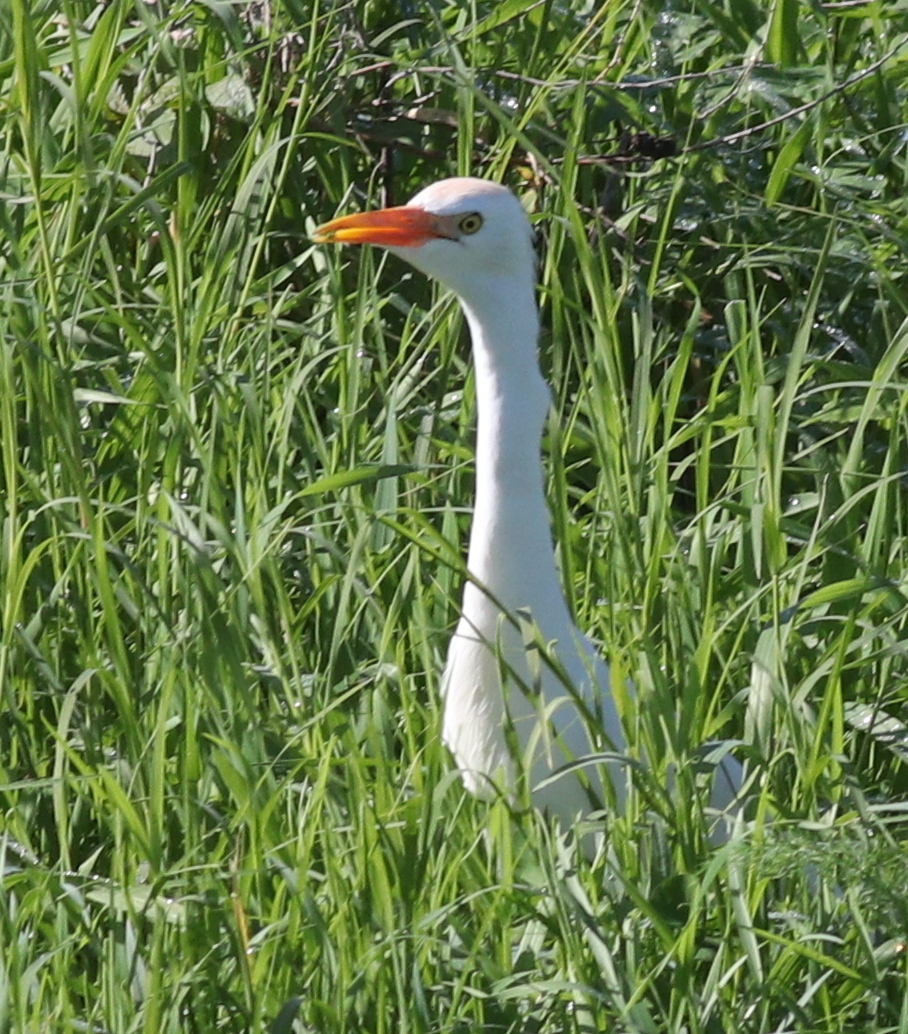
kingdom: Animalia
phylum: Chordata
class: Aves
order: Pelecaniformes
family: Ardeidae
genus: Bubulcus
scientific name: Bubulcus ibis
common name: Cattle egret
